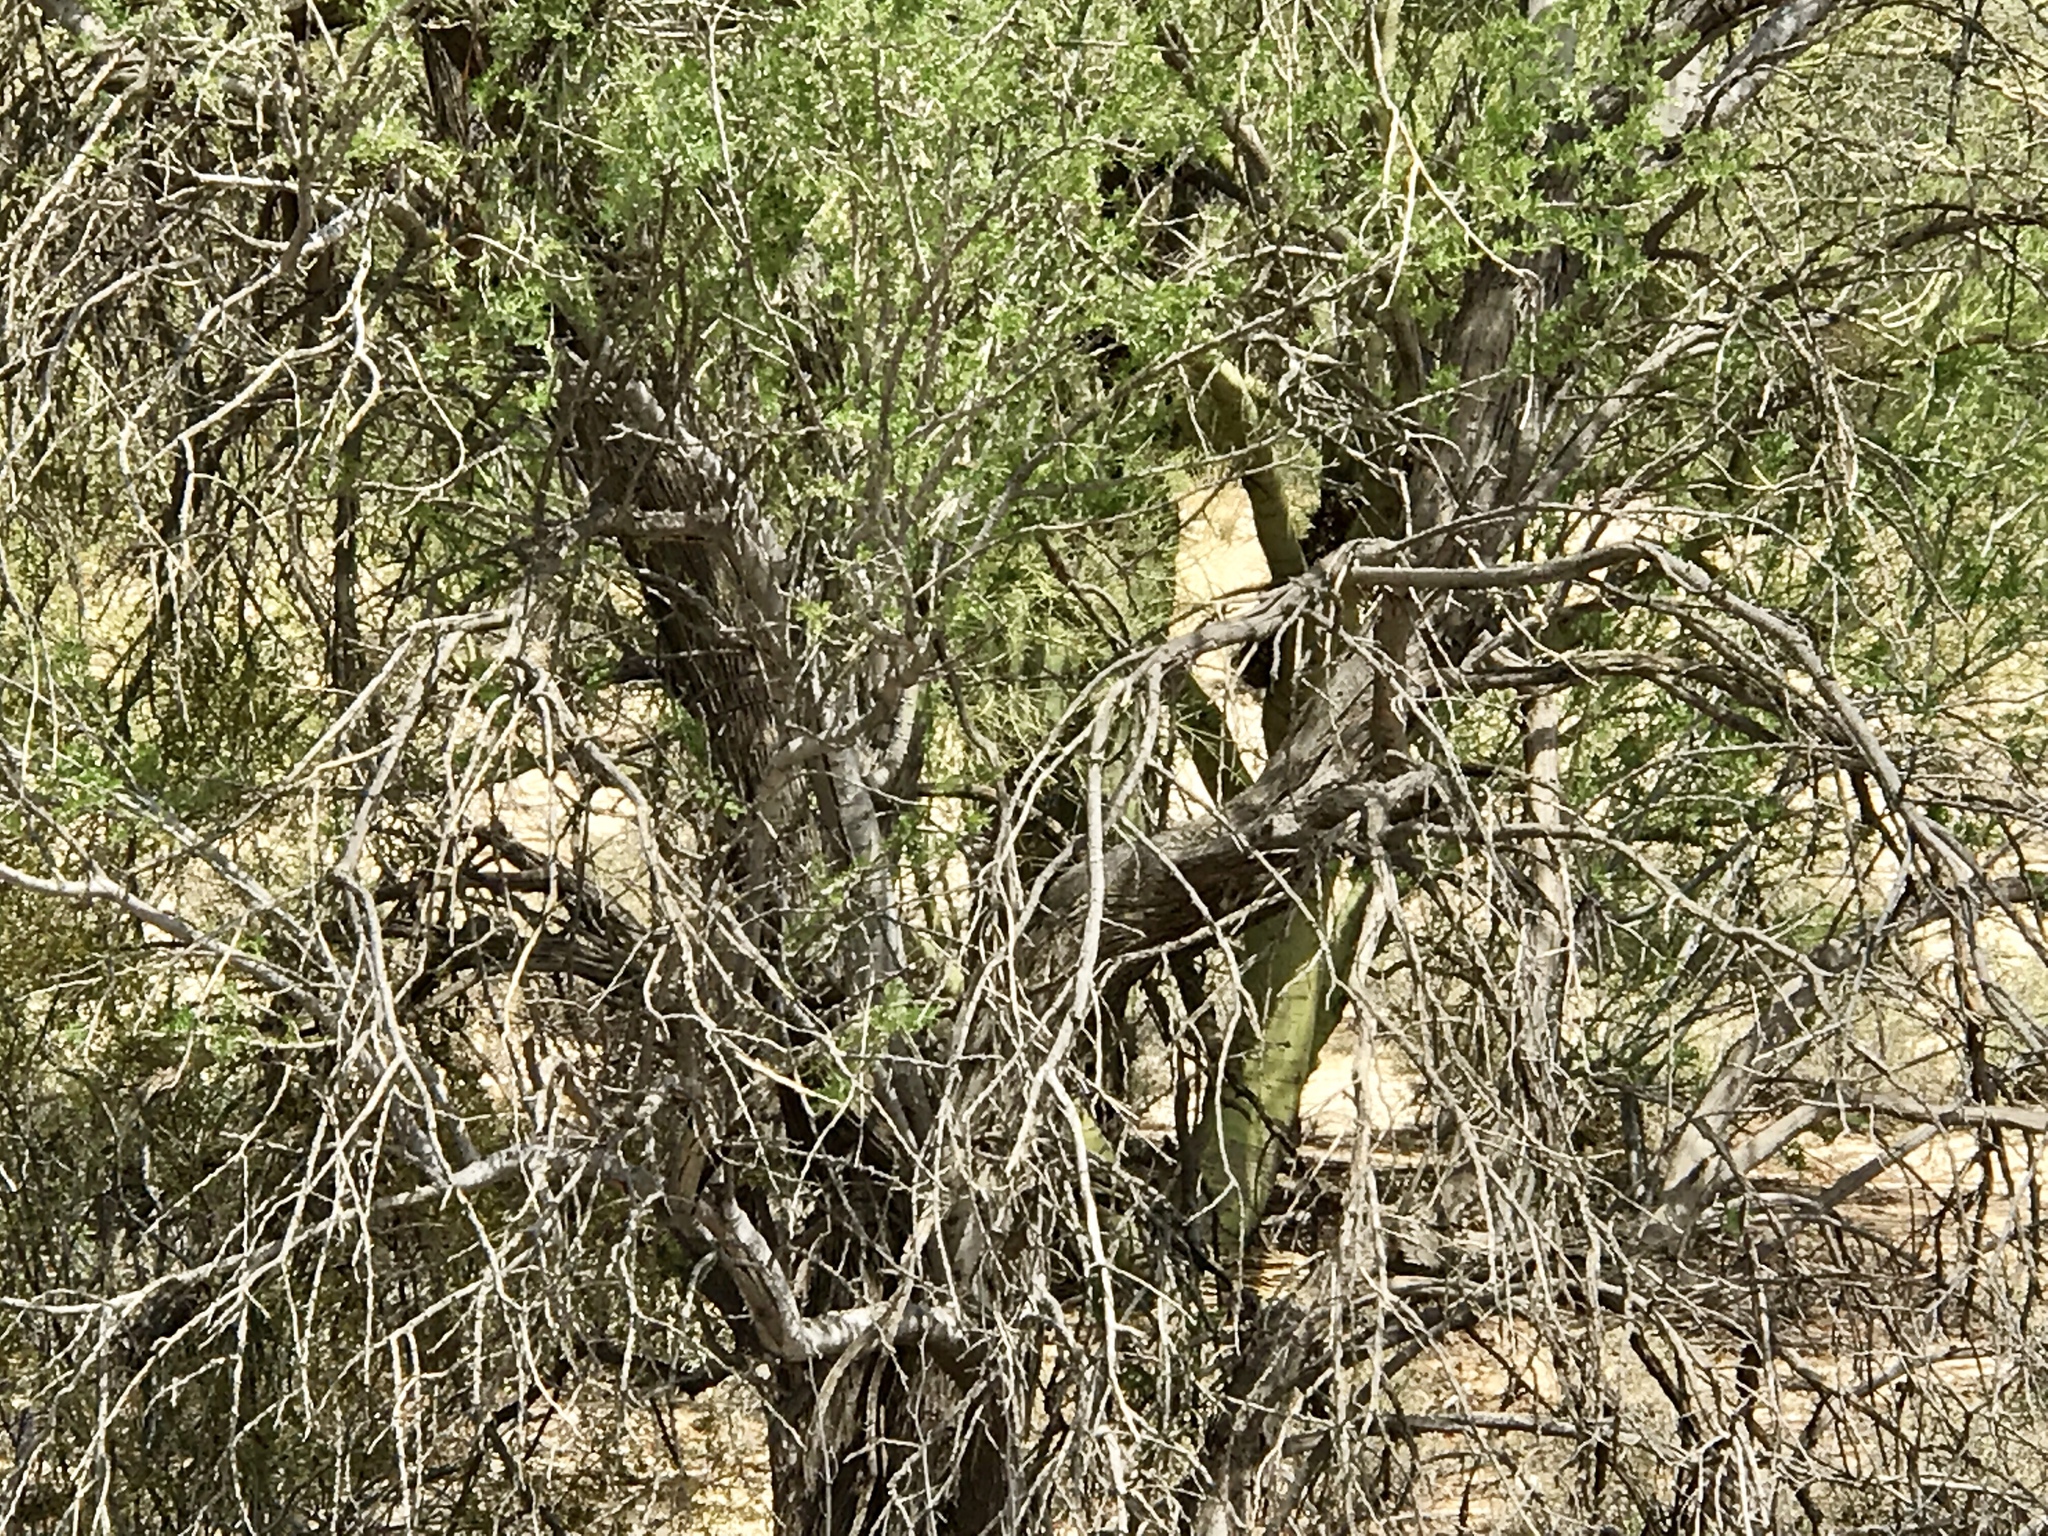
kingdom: Plantae
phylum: Tracheophyta
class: Magnoliopsida
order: Fabales
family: Fabaceae
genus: Olneya
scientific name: Olneya tesota
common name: Desert ironwood
